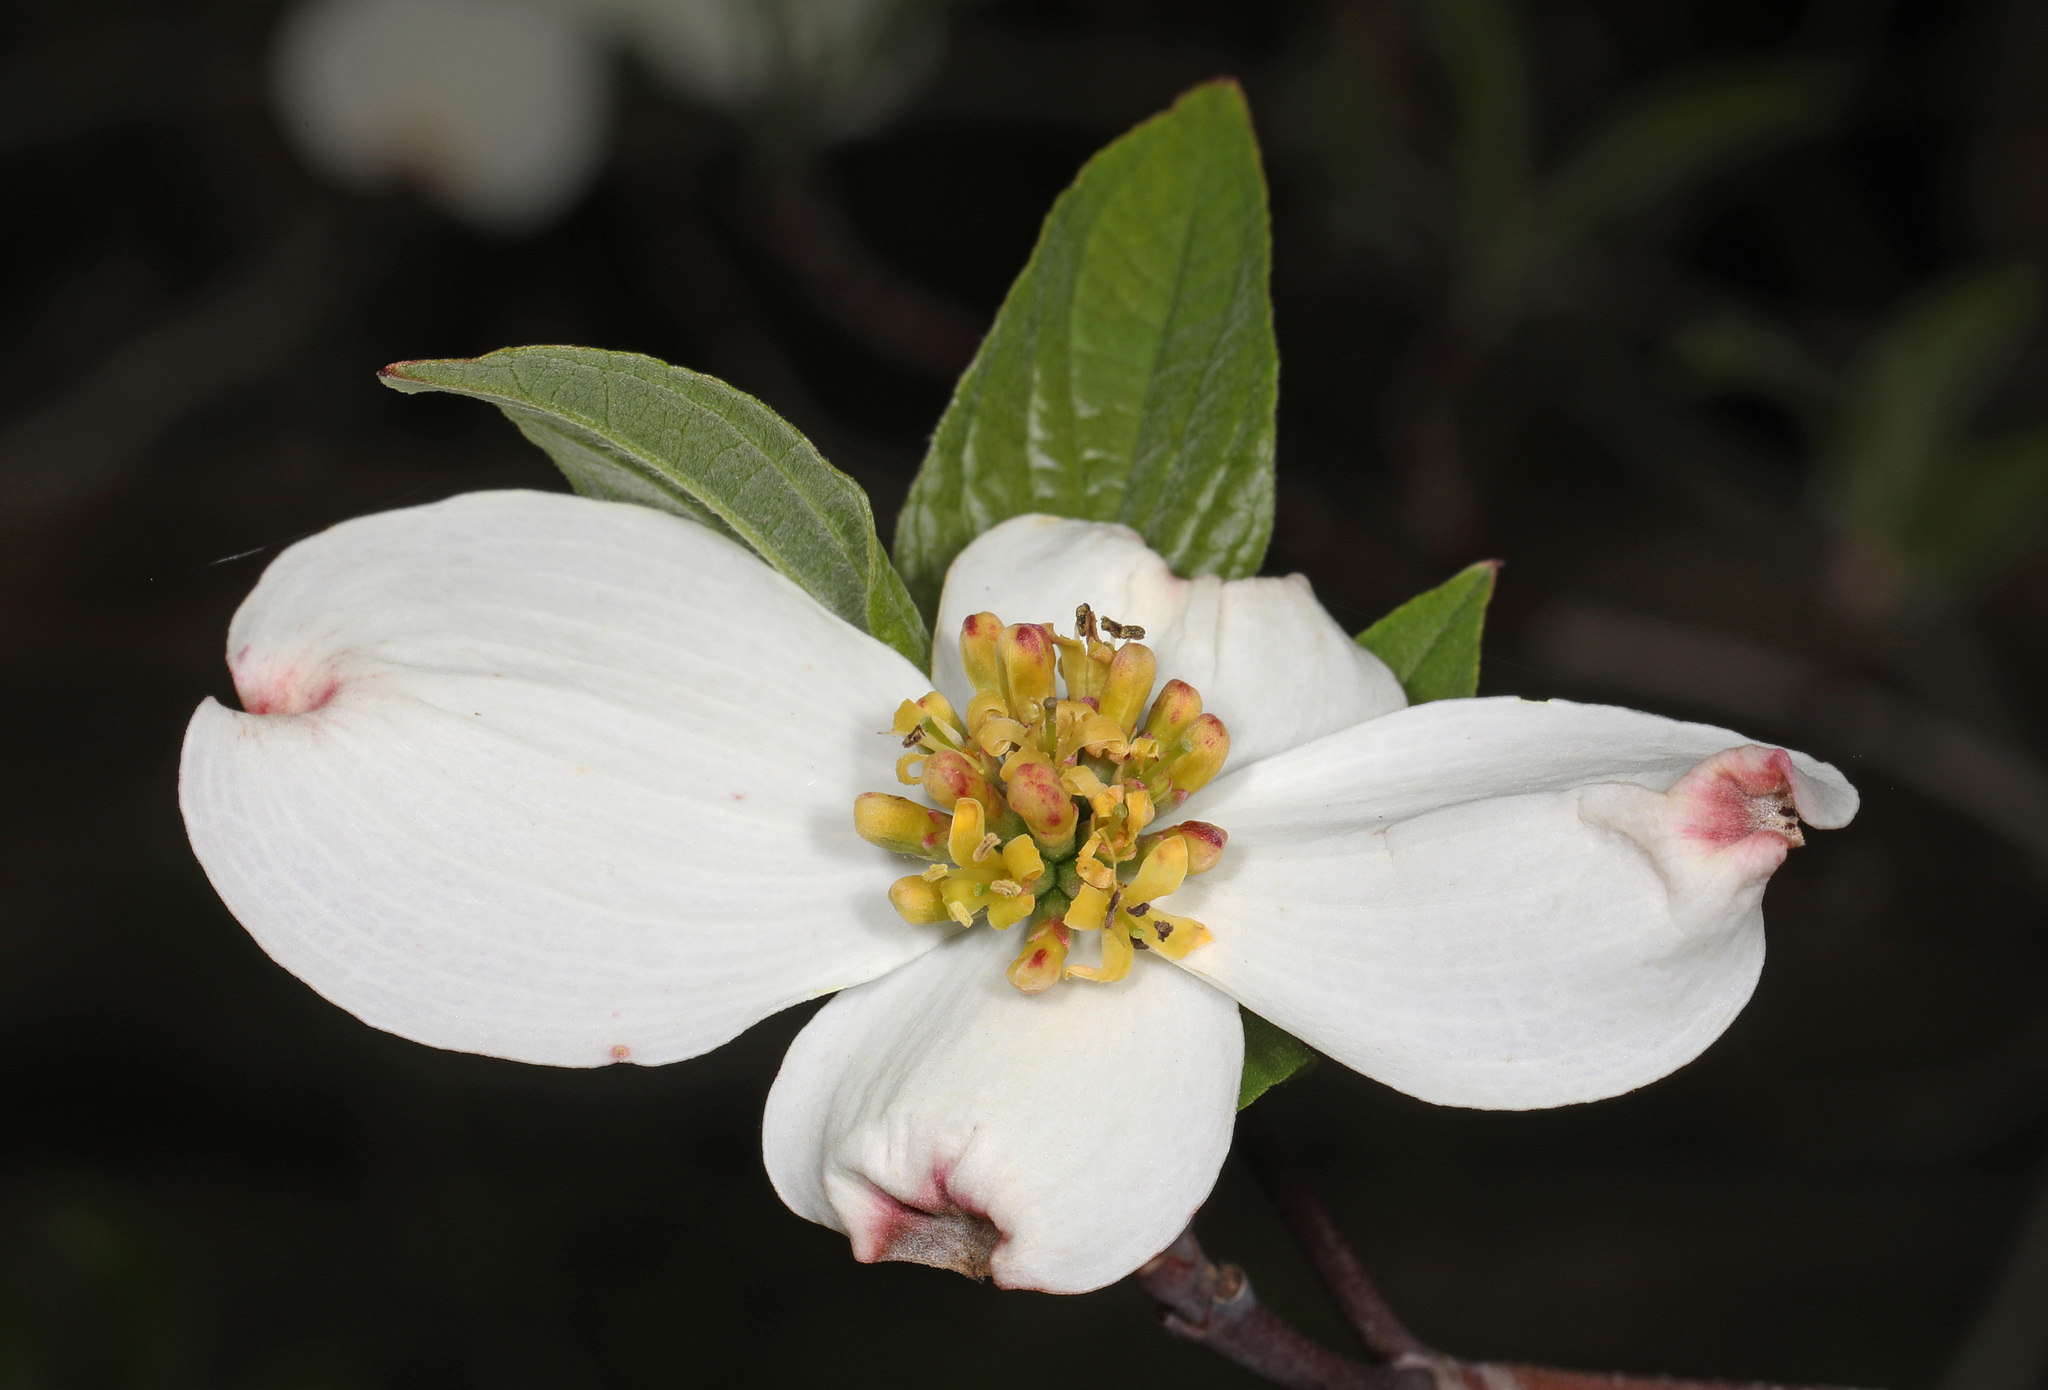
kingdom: Plantae
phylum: Tracheophyta
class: Magnoliopsida
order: Cornales
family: Cornaceae
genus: Cornus
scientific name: Cornus florida
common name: Flowering dogwood
